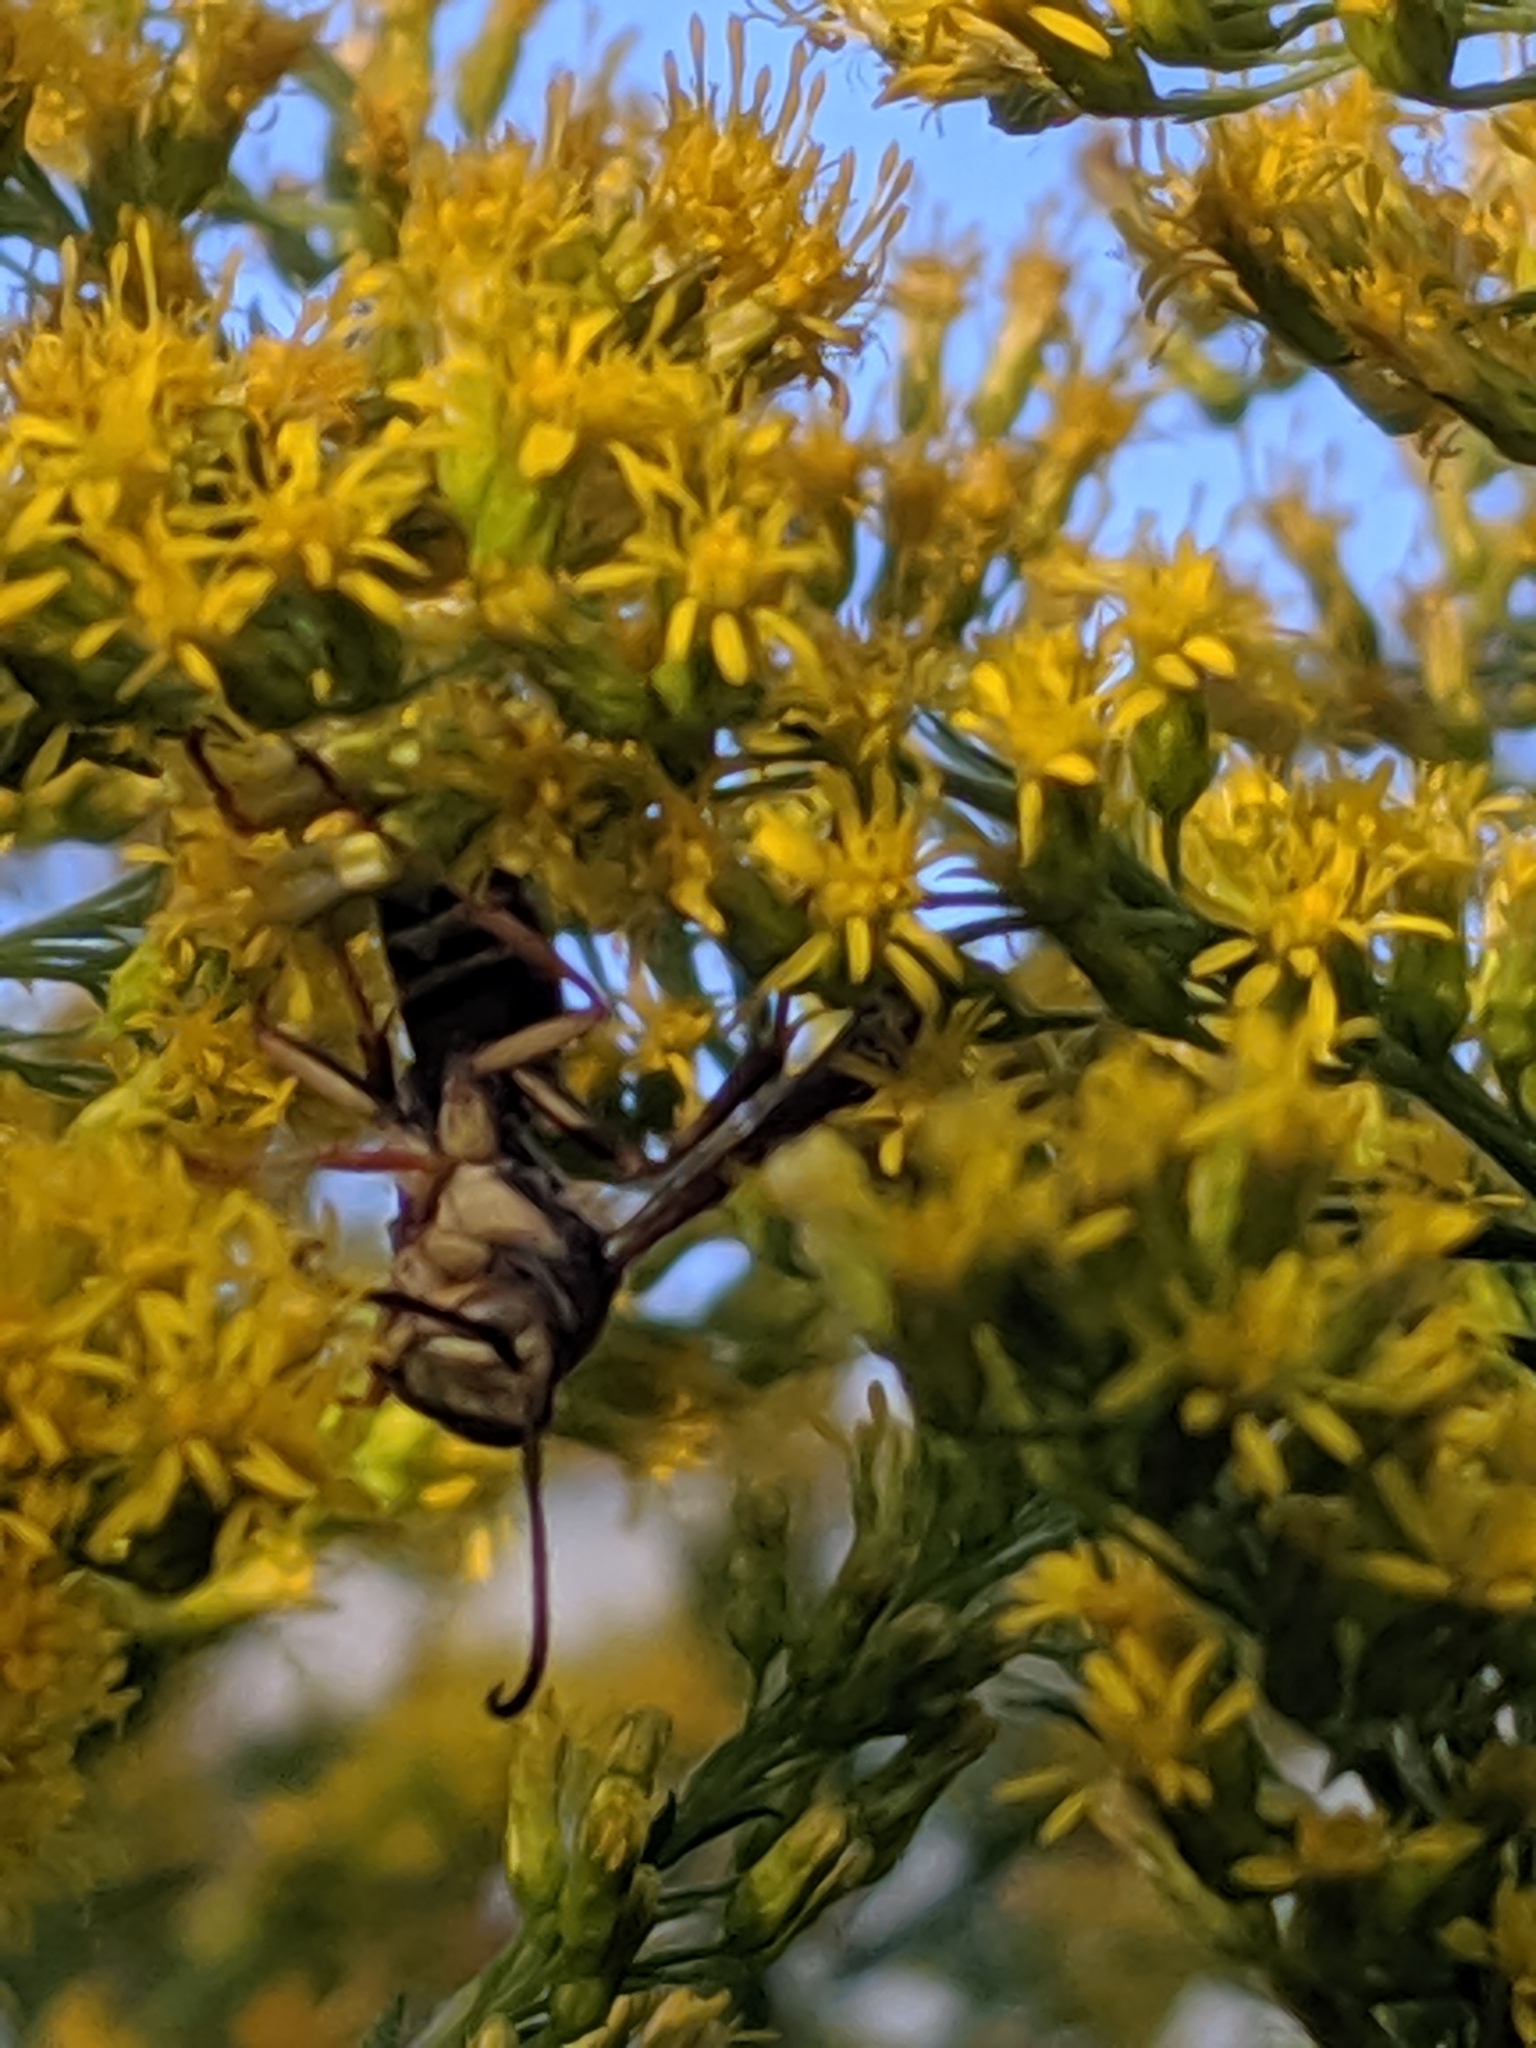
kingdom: Animalia
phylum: Arthropoda
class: Insecta
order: Hymenoptera
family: Eumenidae
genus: Polistes
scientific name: Polistes fuscatus
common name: Dark paper wasp
